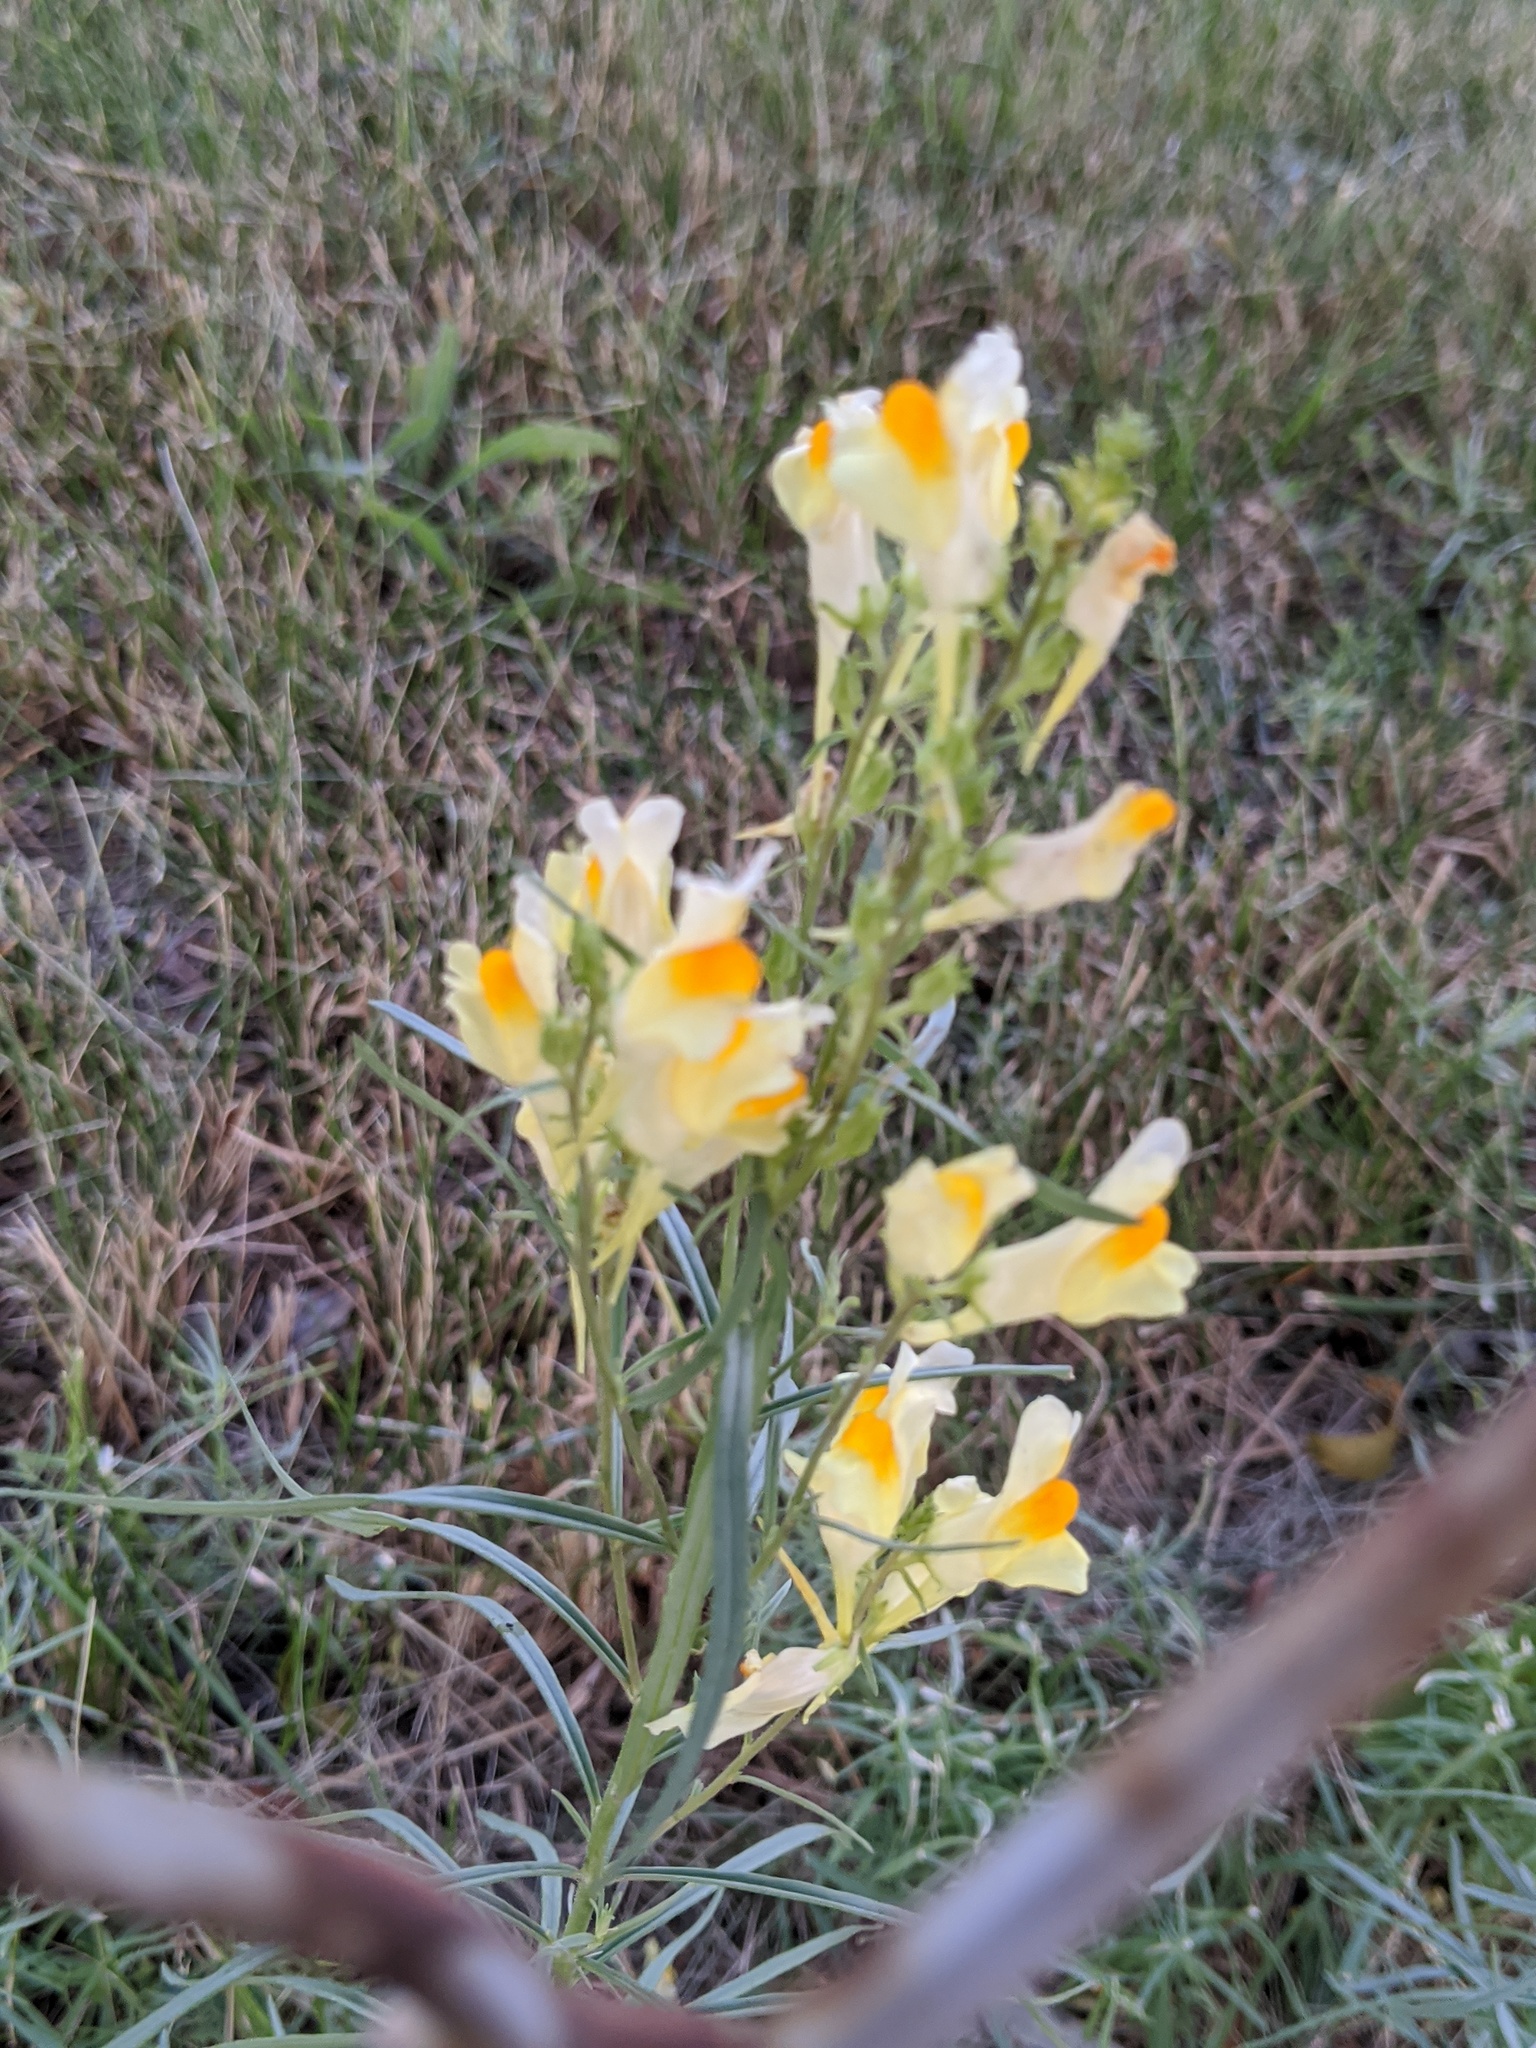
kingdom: Plantae
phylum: Tracheophyta
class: Magnoliopsida
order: Lamiales
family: Plantaginaceae
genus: Linaria
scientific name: Linaria vulgaris
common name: Butter and eggs
